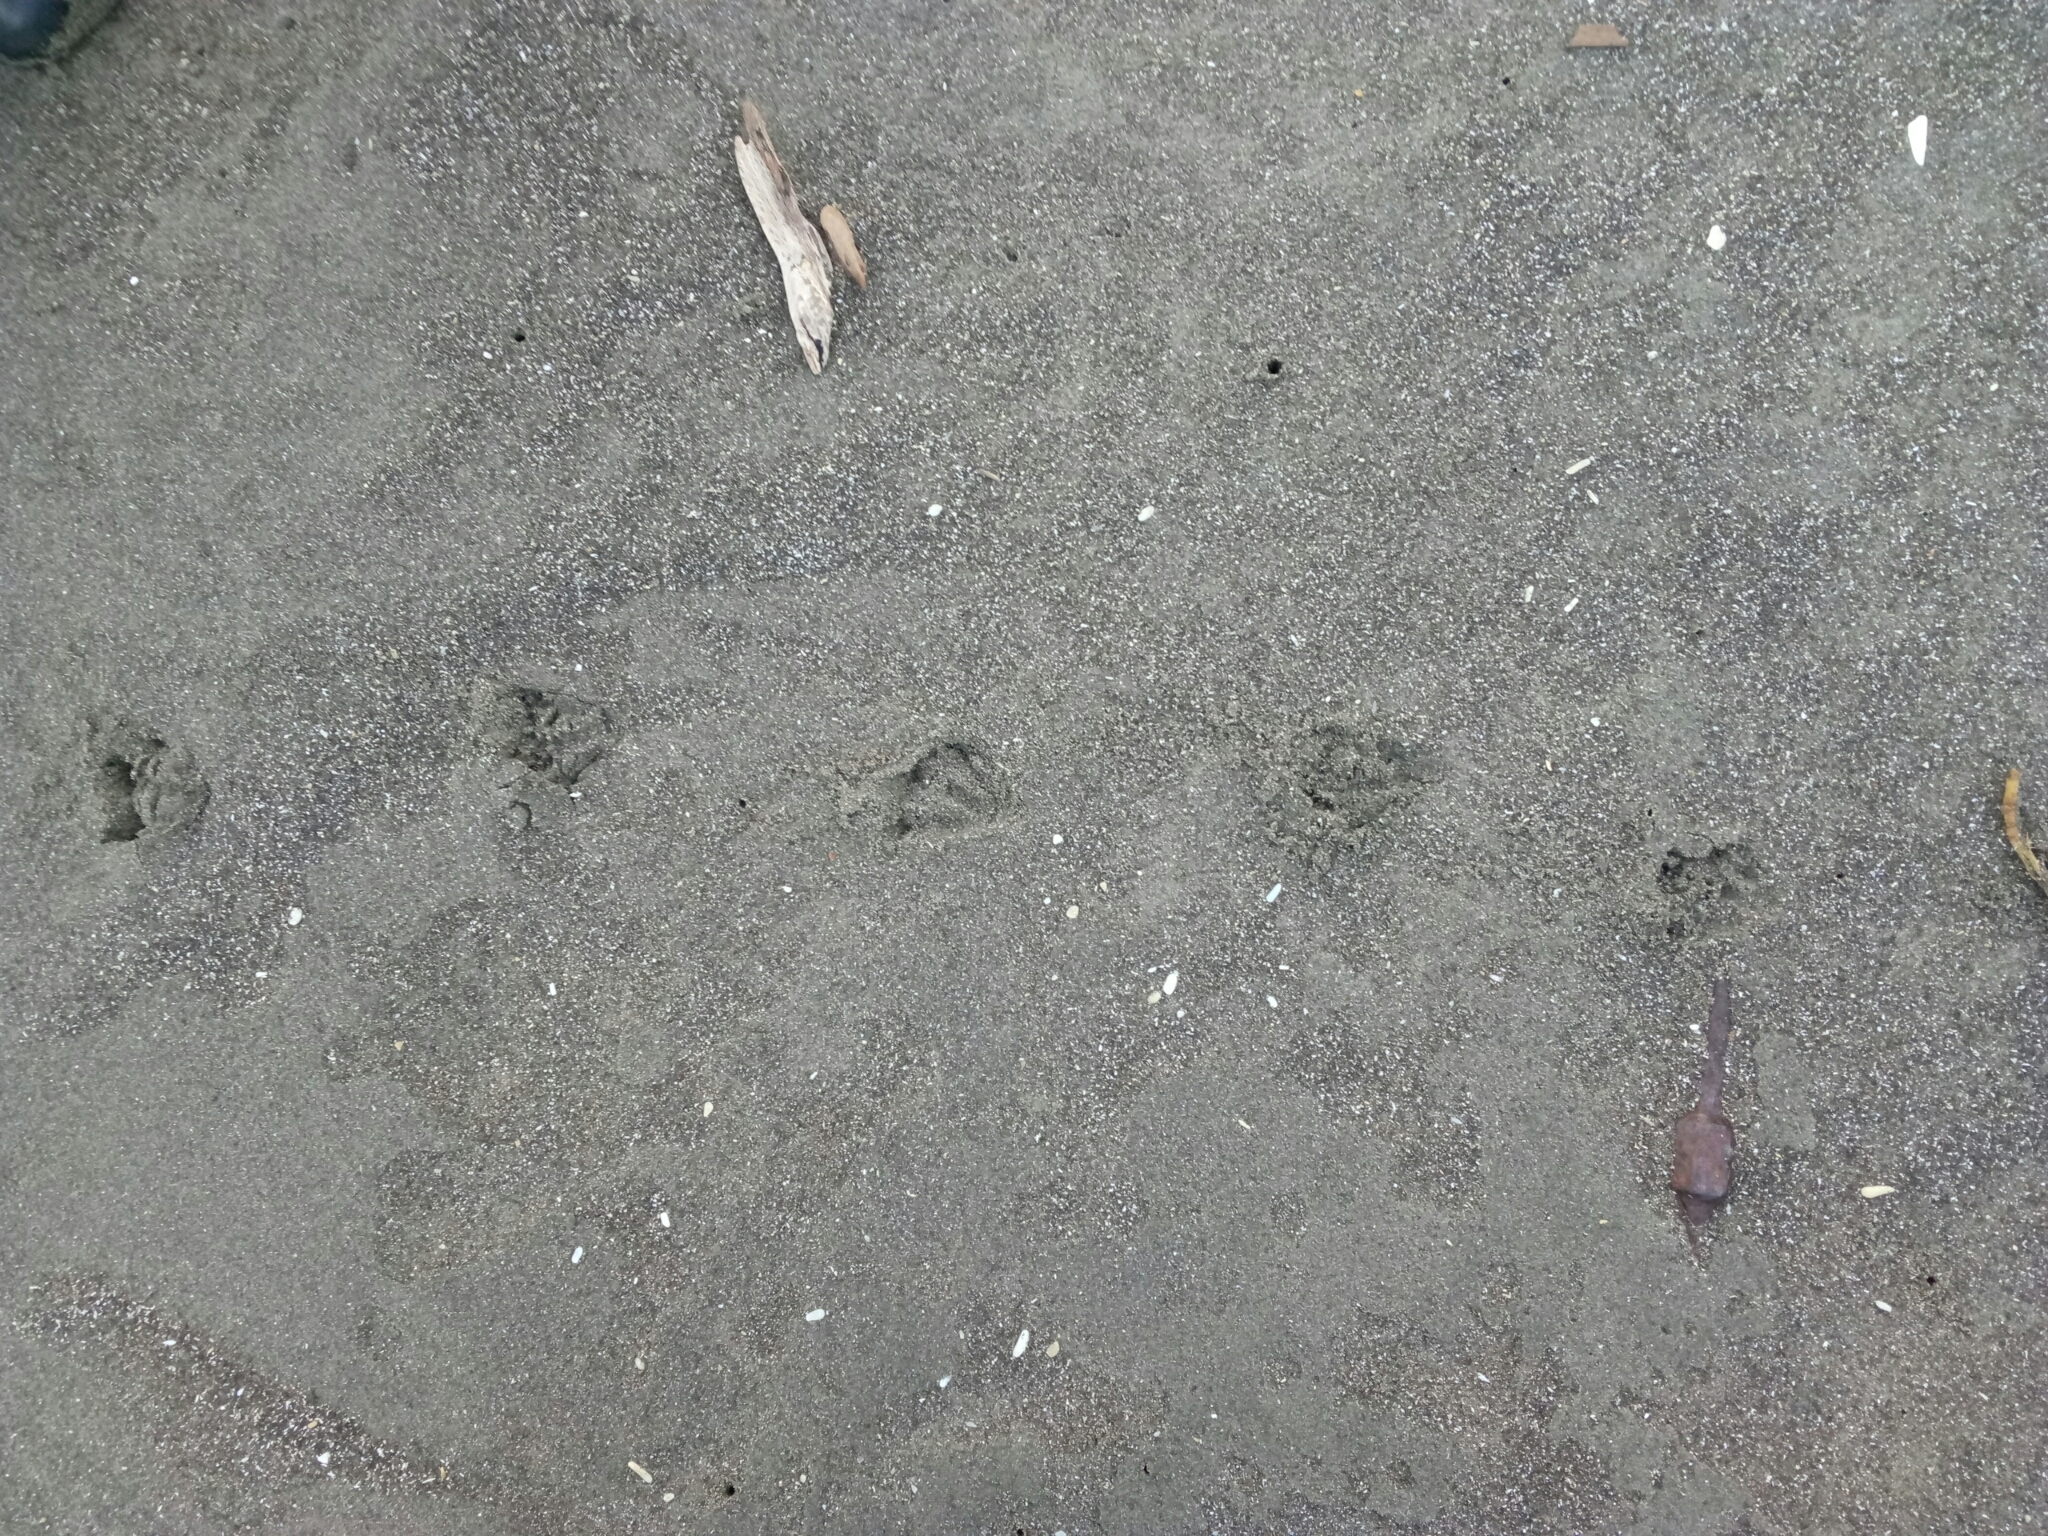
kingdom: Animalia
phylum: Chordata
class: Aves
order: Sphenisciformes
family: Spheniscidae
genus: Eudyptula
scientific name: Eudyptula minor
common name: Little penguin
